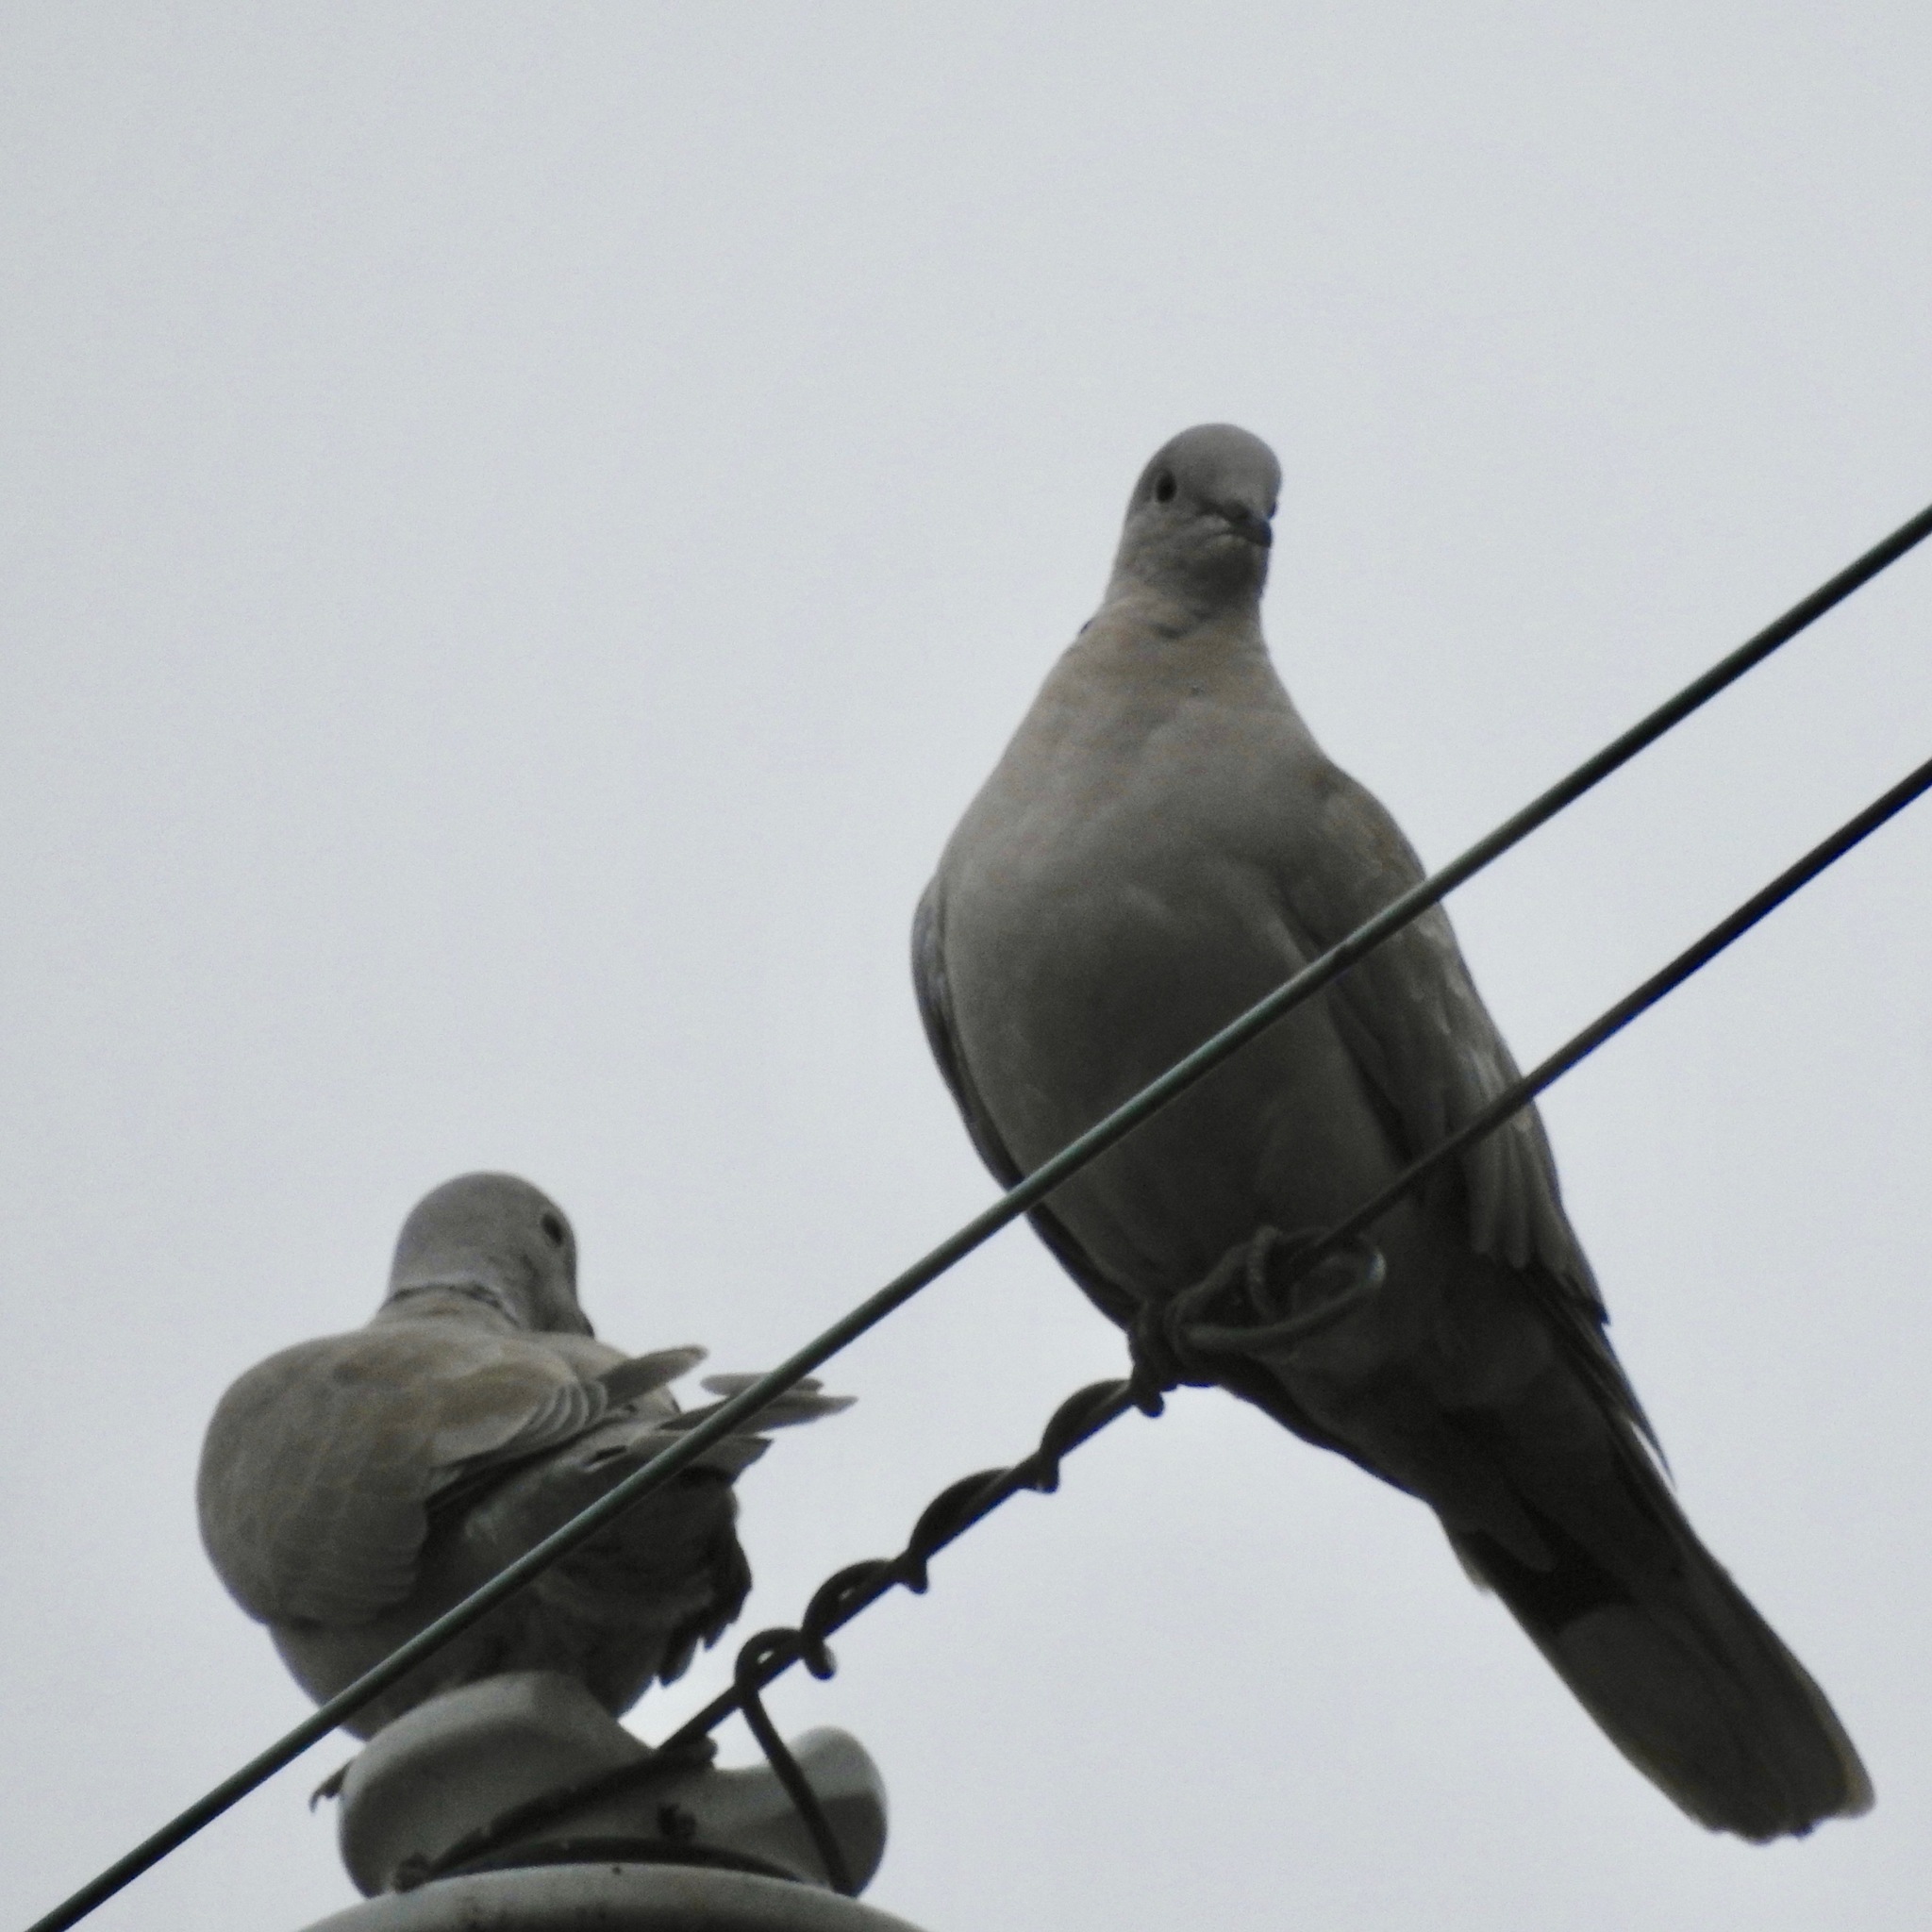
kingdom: Animalia
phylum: Chordata
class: Aves
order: Columbiformes
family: Columbidae
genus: Streptopelia
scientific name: Streptopelia decaocto
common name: Eurasian collared dove
